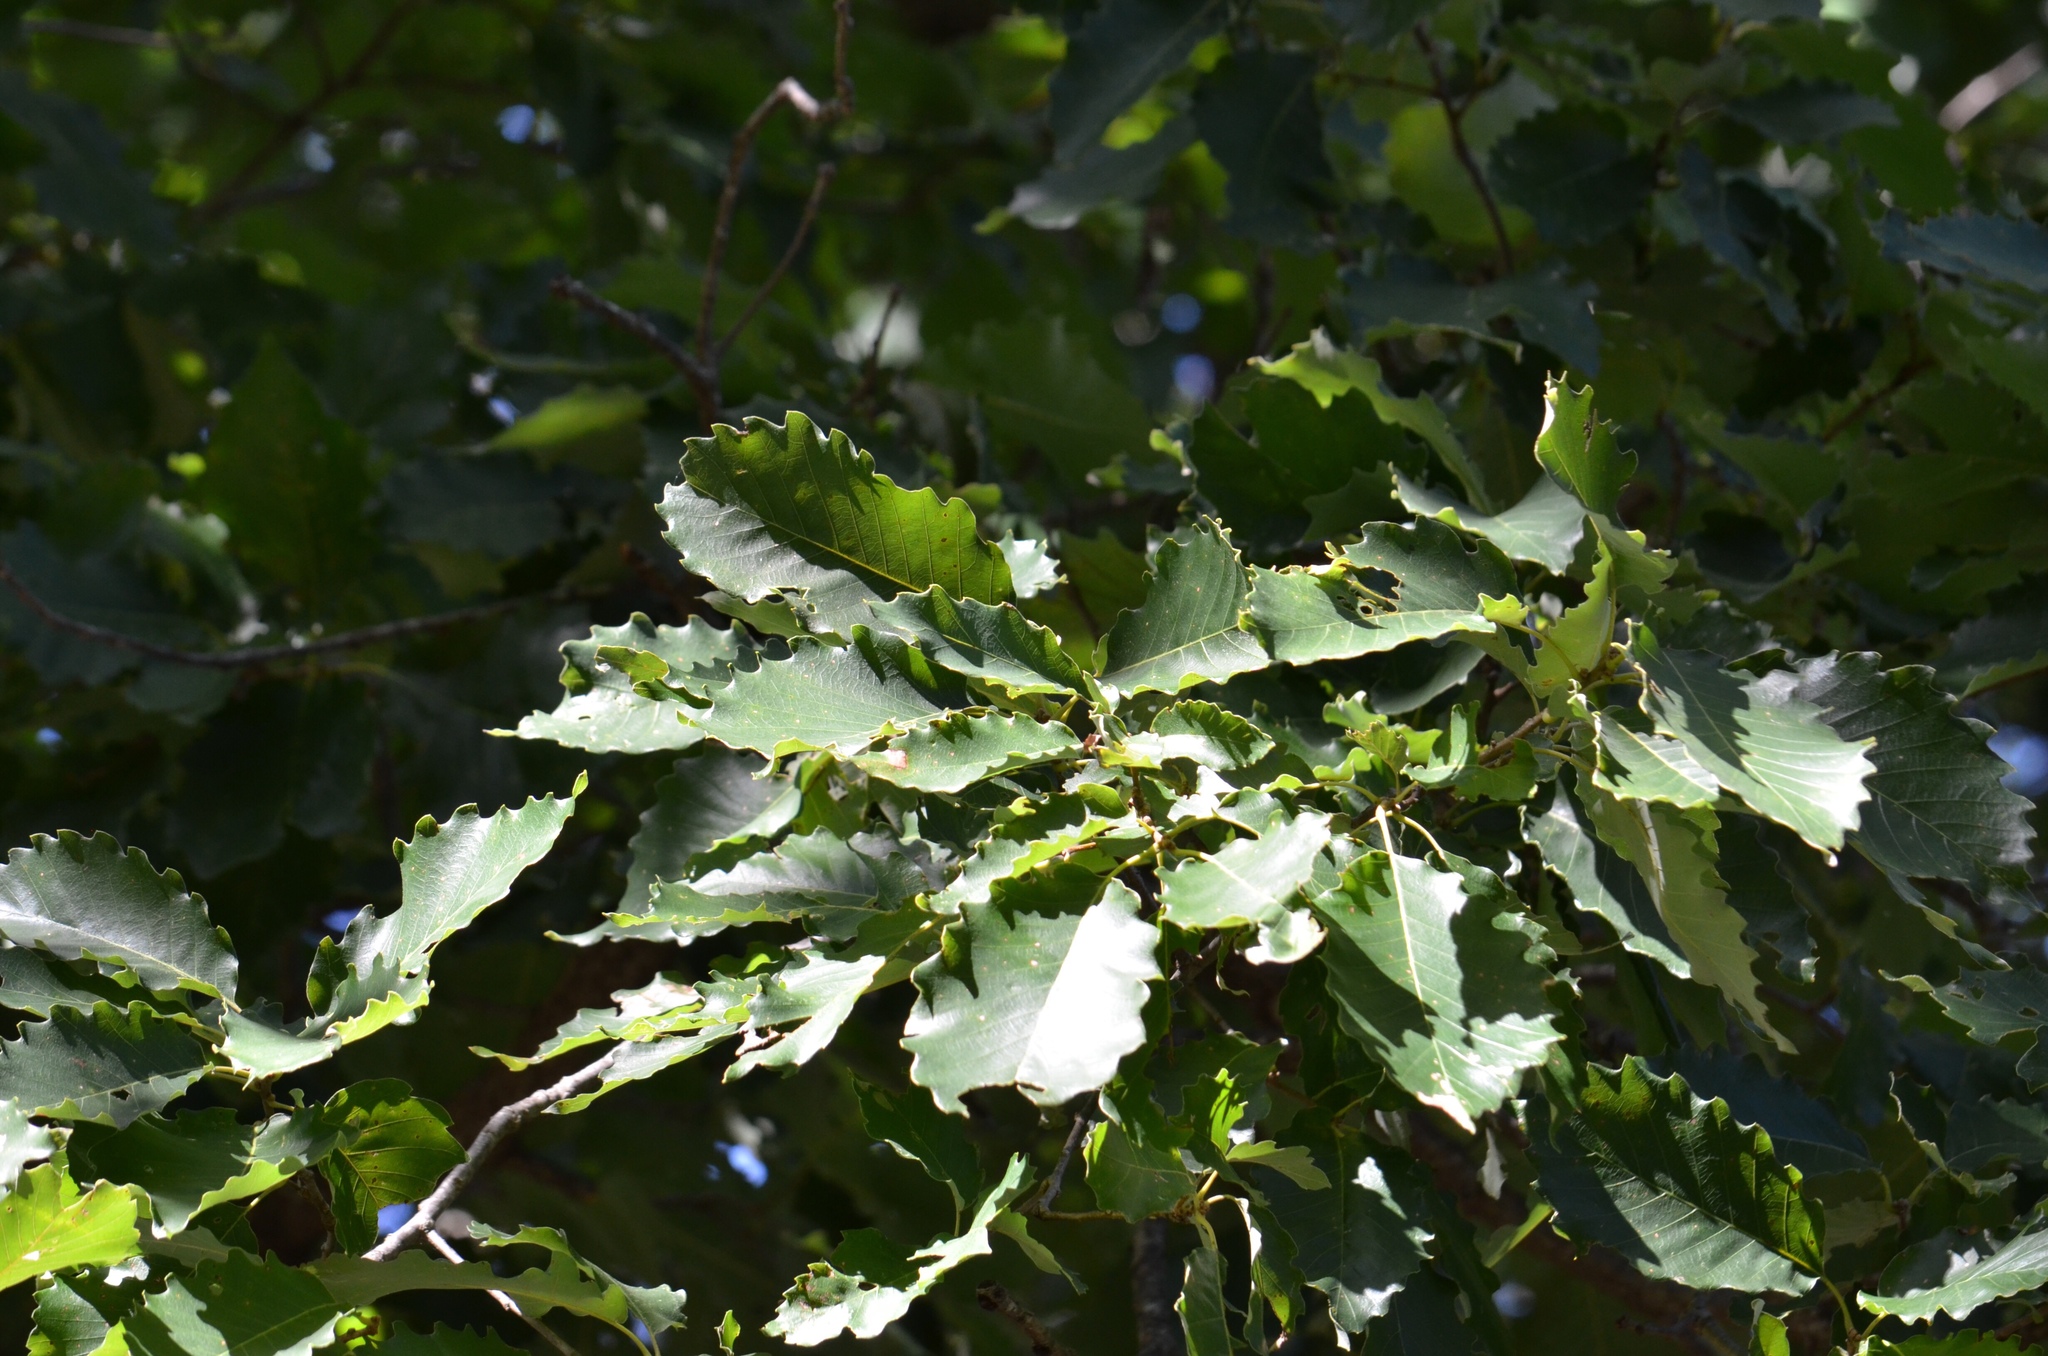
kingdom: Plantae
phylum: Tracheophyta
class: Magnoliopsida
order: Fagales
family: Fagaceae
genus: Quercus
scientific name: Quercus muehlenbergii
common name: Chinkapin oak
